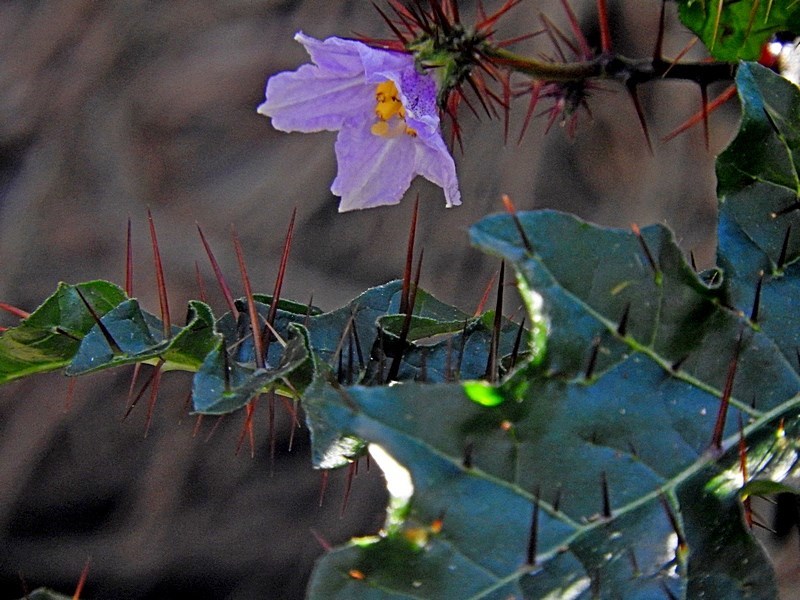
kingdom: Plantae
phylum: Tracheophyta
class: Magnoliopsida
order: Solanales
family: Solanaceae
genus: Solanum
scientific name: Solanum prinophyllum
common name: Forest nightshade
